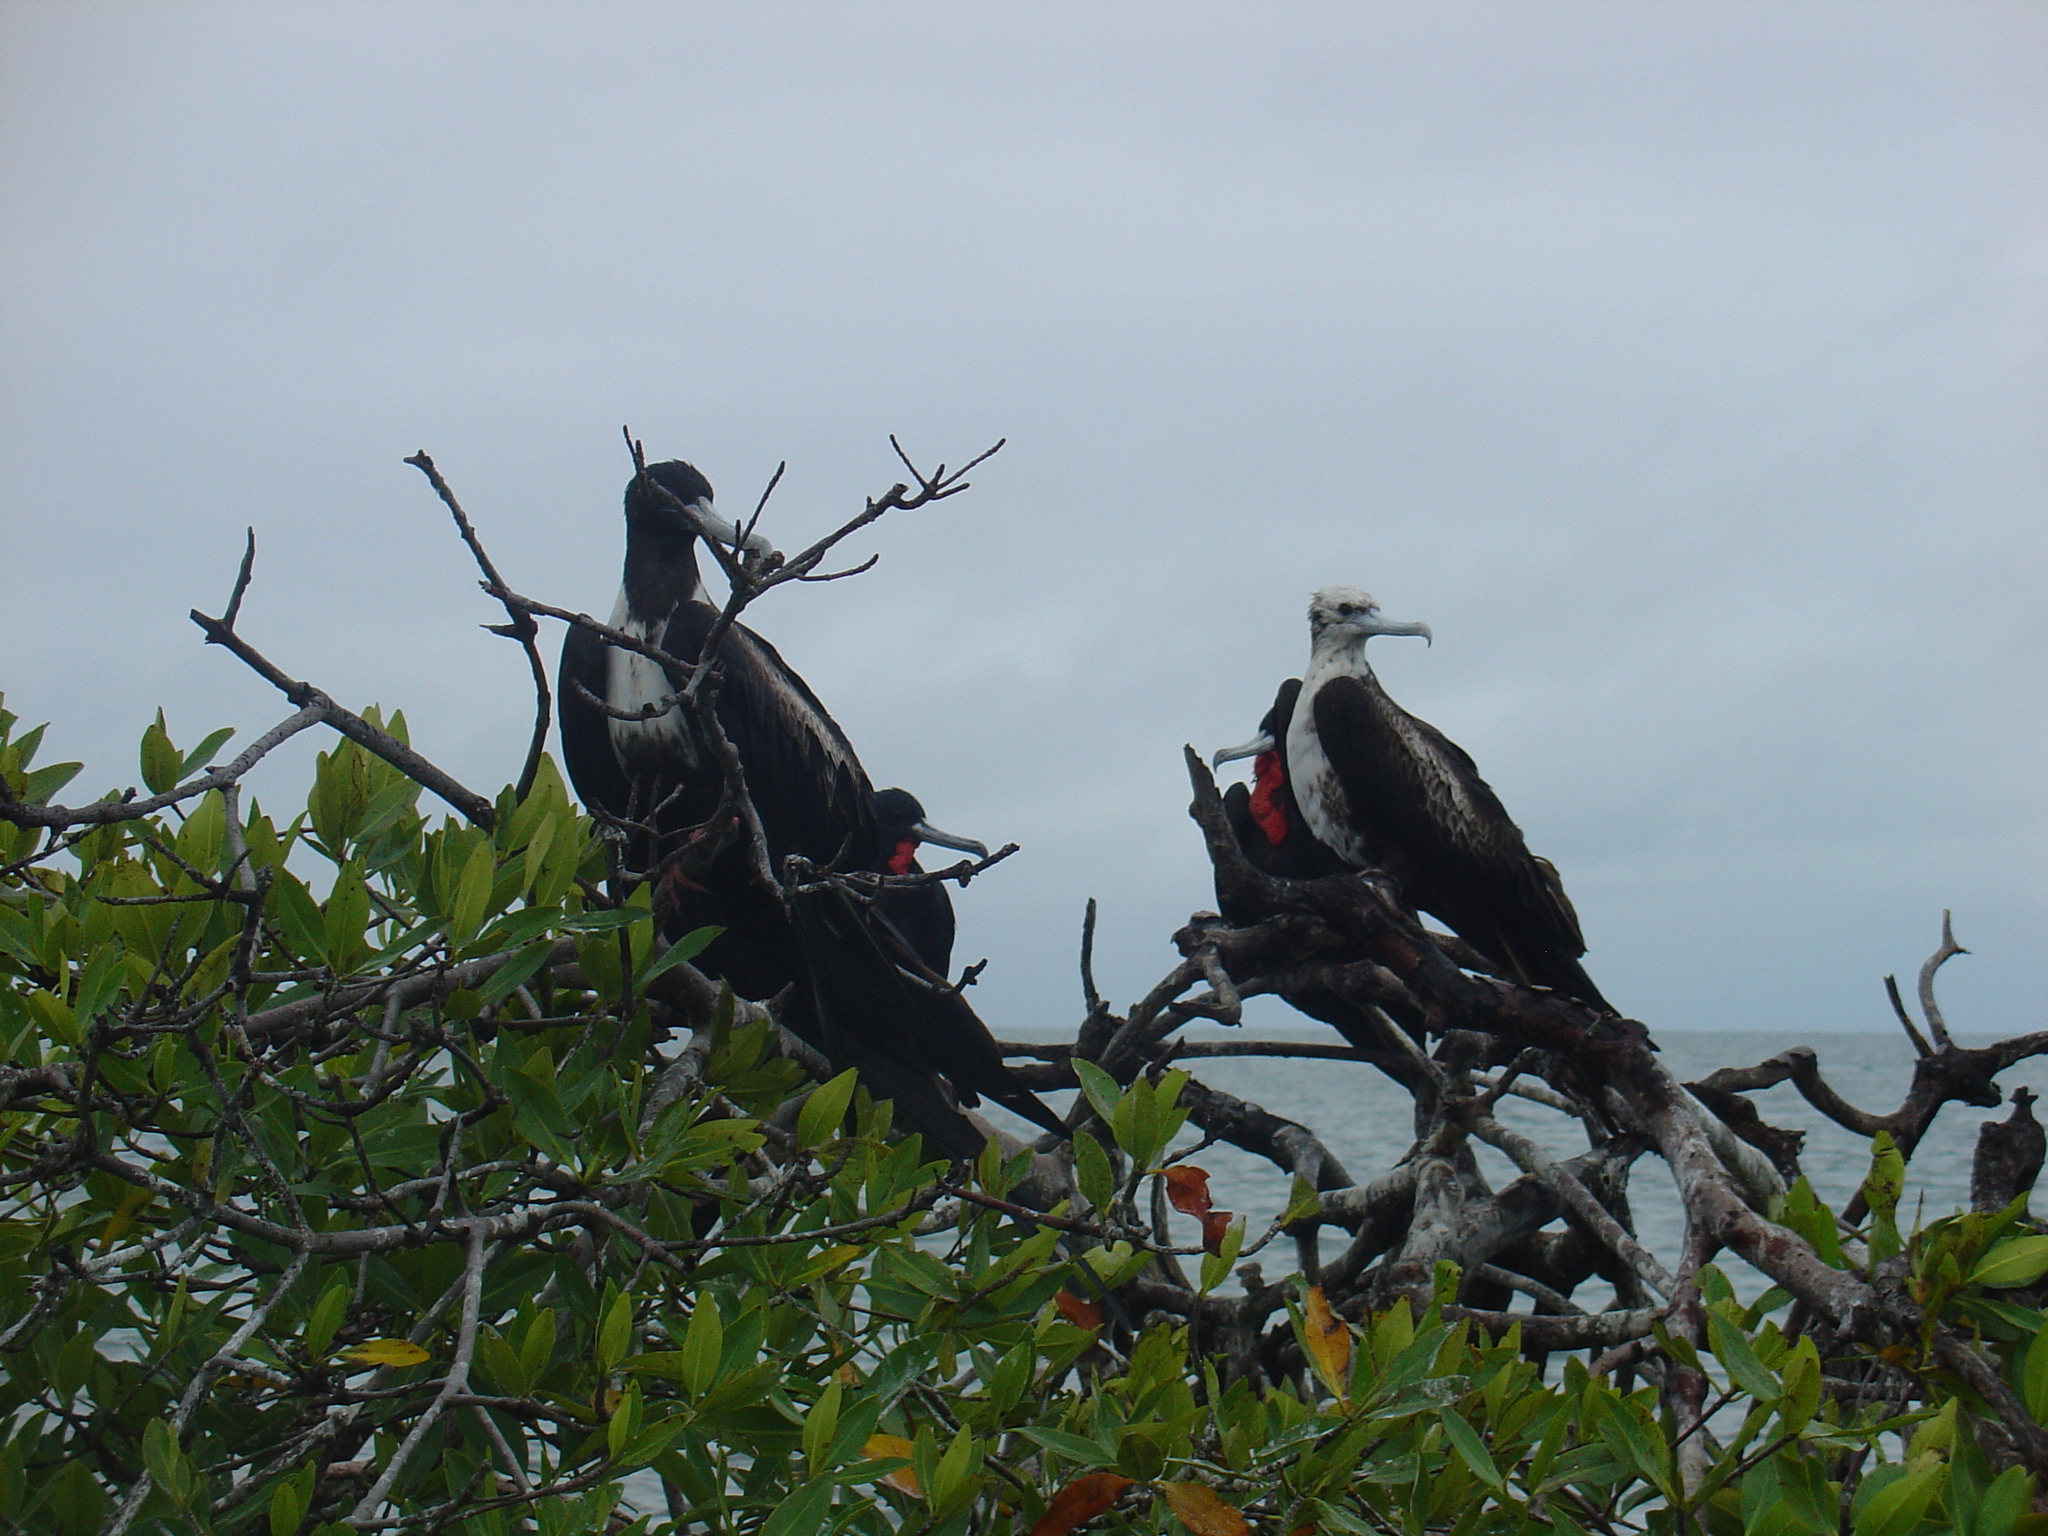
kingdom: Animalia
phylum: Chordata
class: Aves
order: Suliformes
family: Fregatidae
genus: Fregata
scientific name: Fregata magnificens
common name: Magnificent frigatebird
